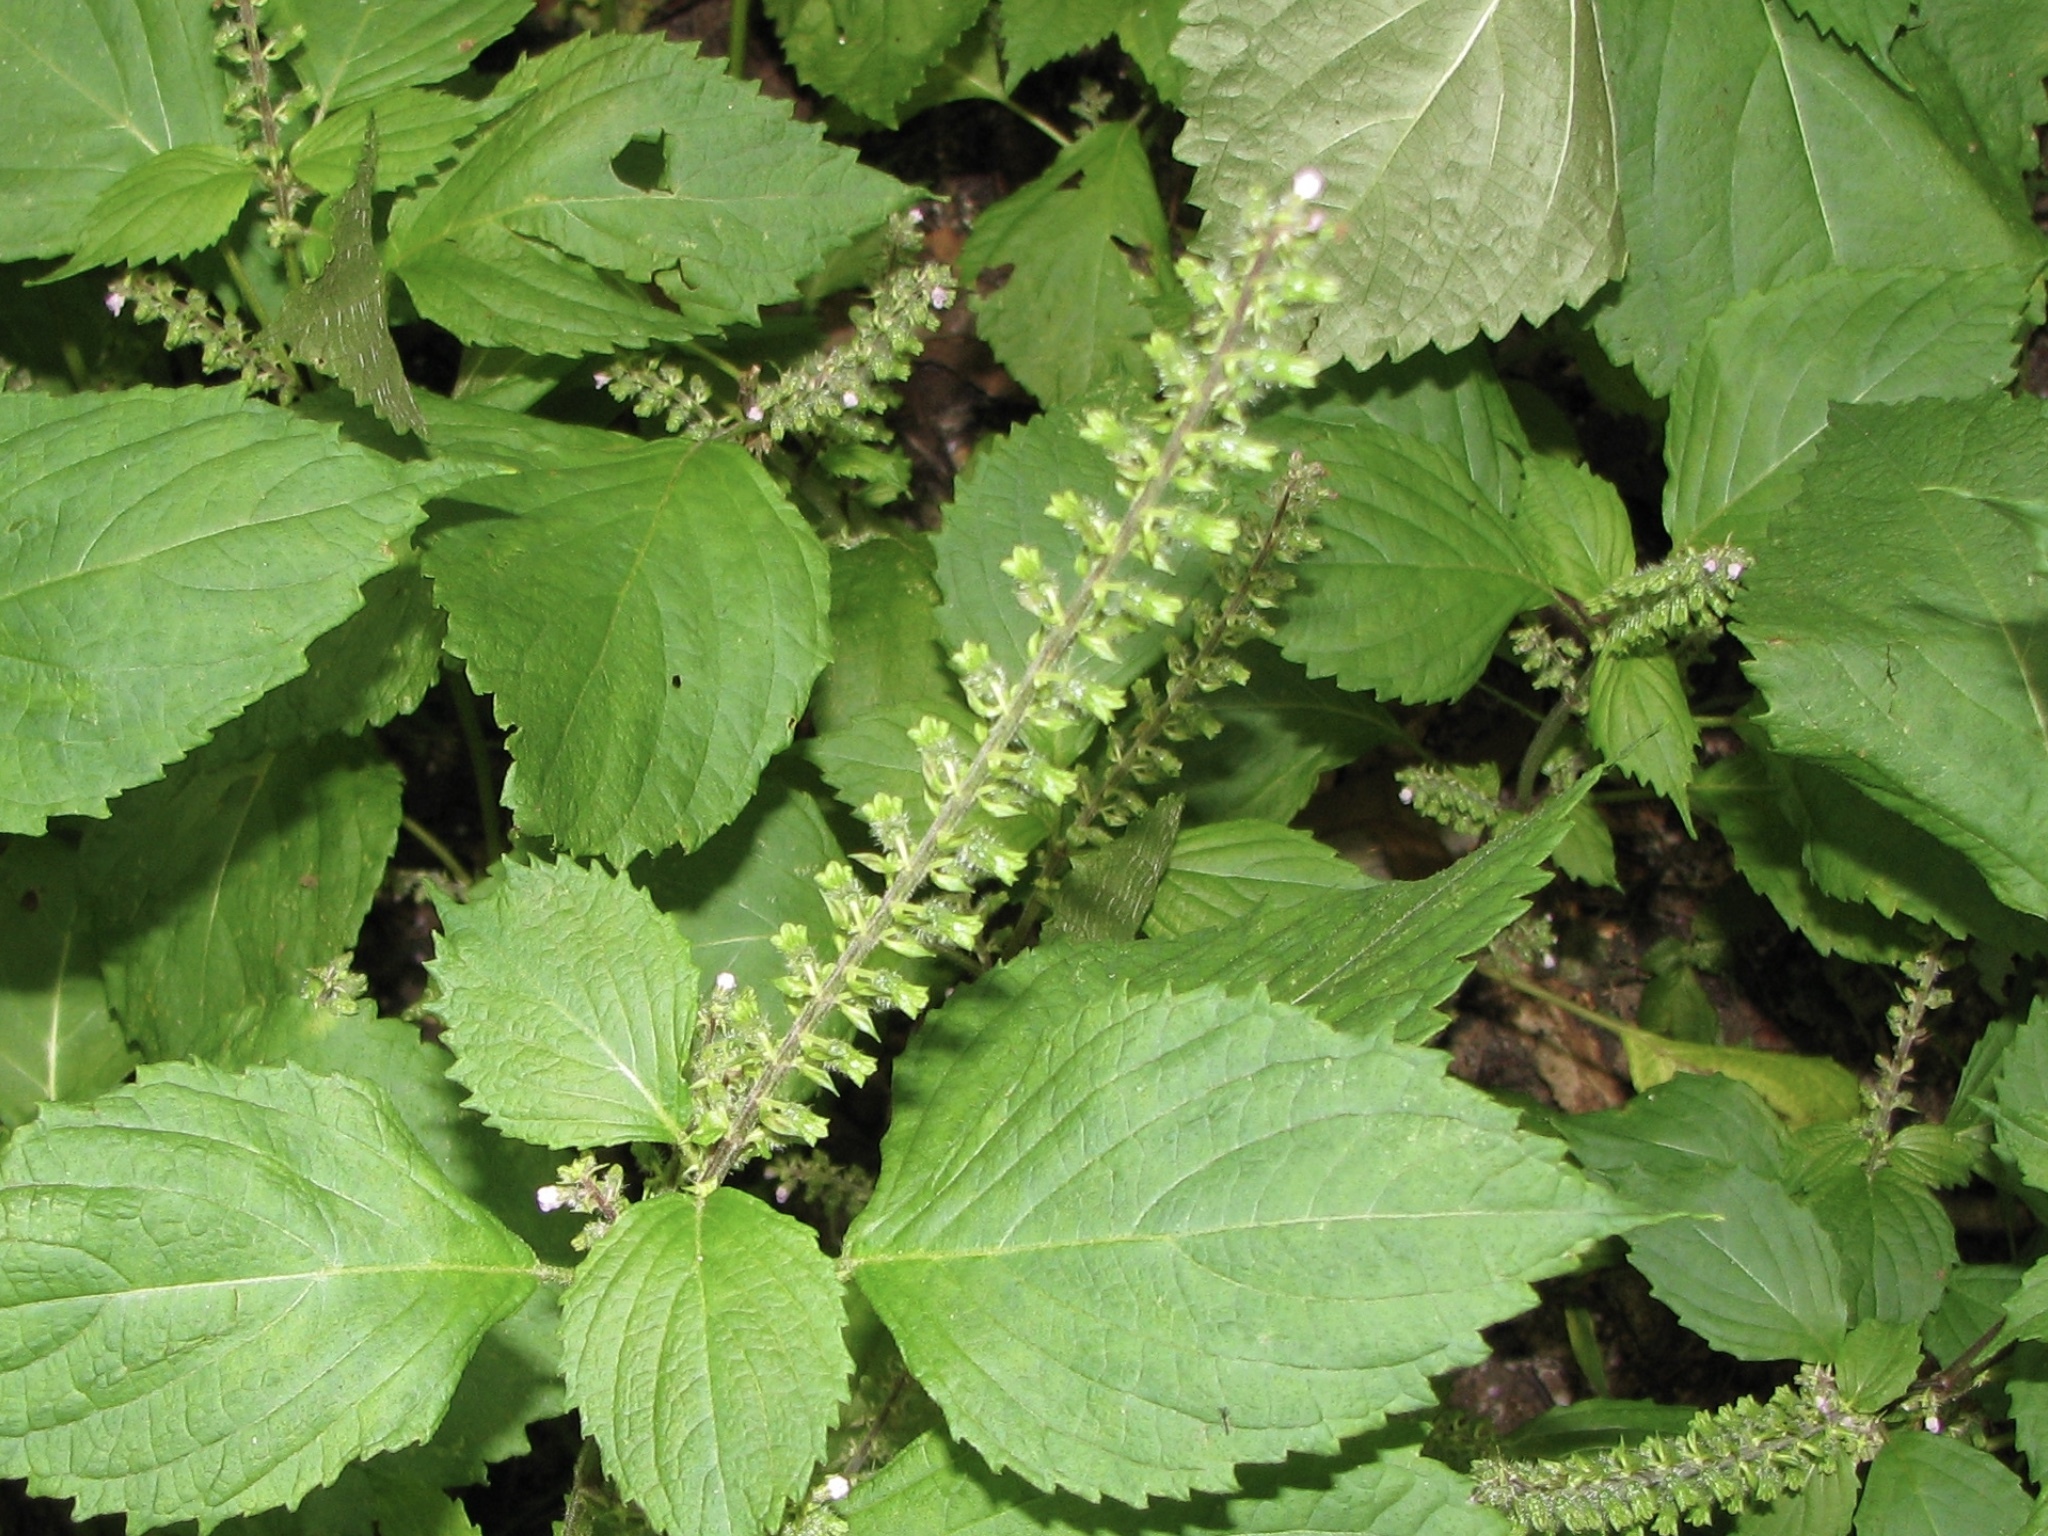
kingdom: Plantae
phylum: Tracheophyta
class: Magnoliopsida
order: Lamiales
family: Lamiaceae
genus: Perilla
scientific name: Perilla frutescens
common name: Perilla
